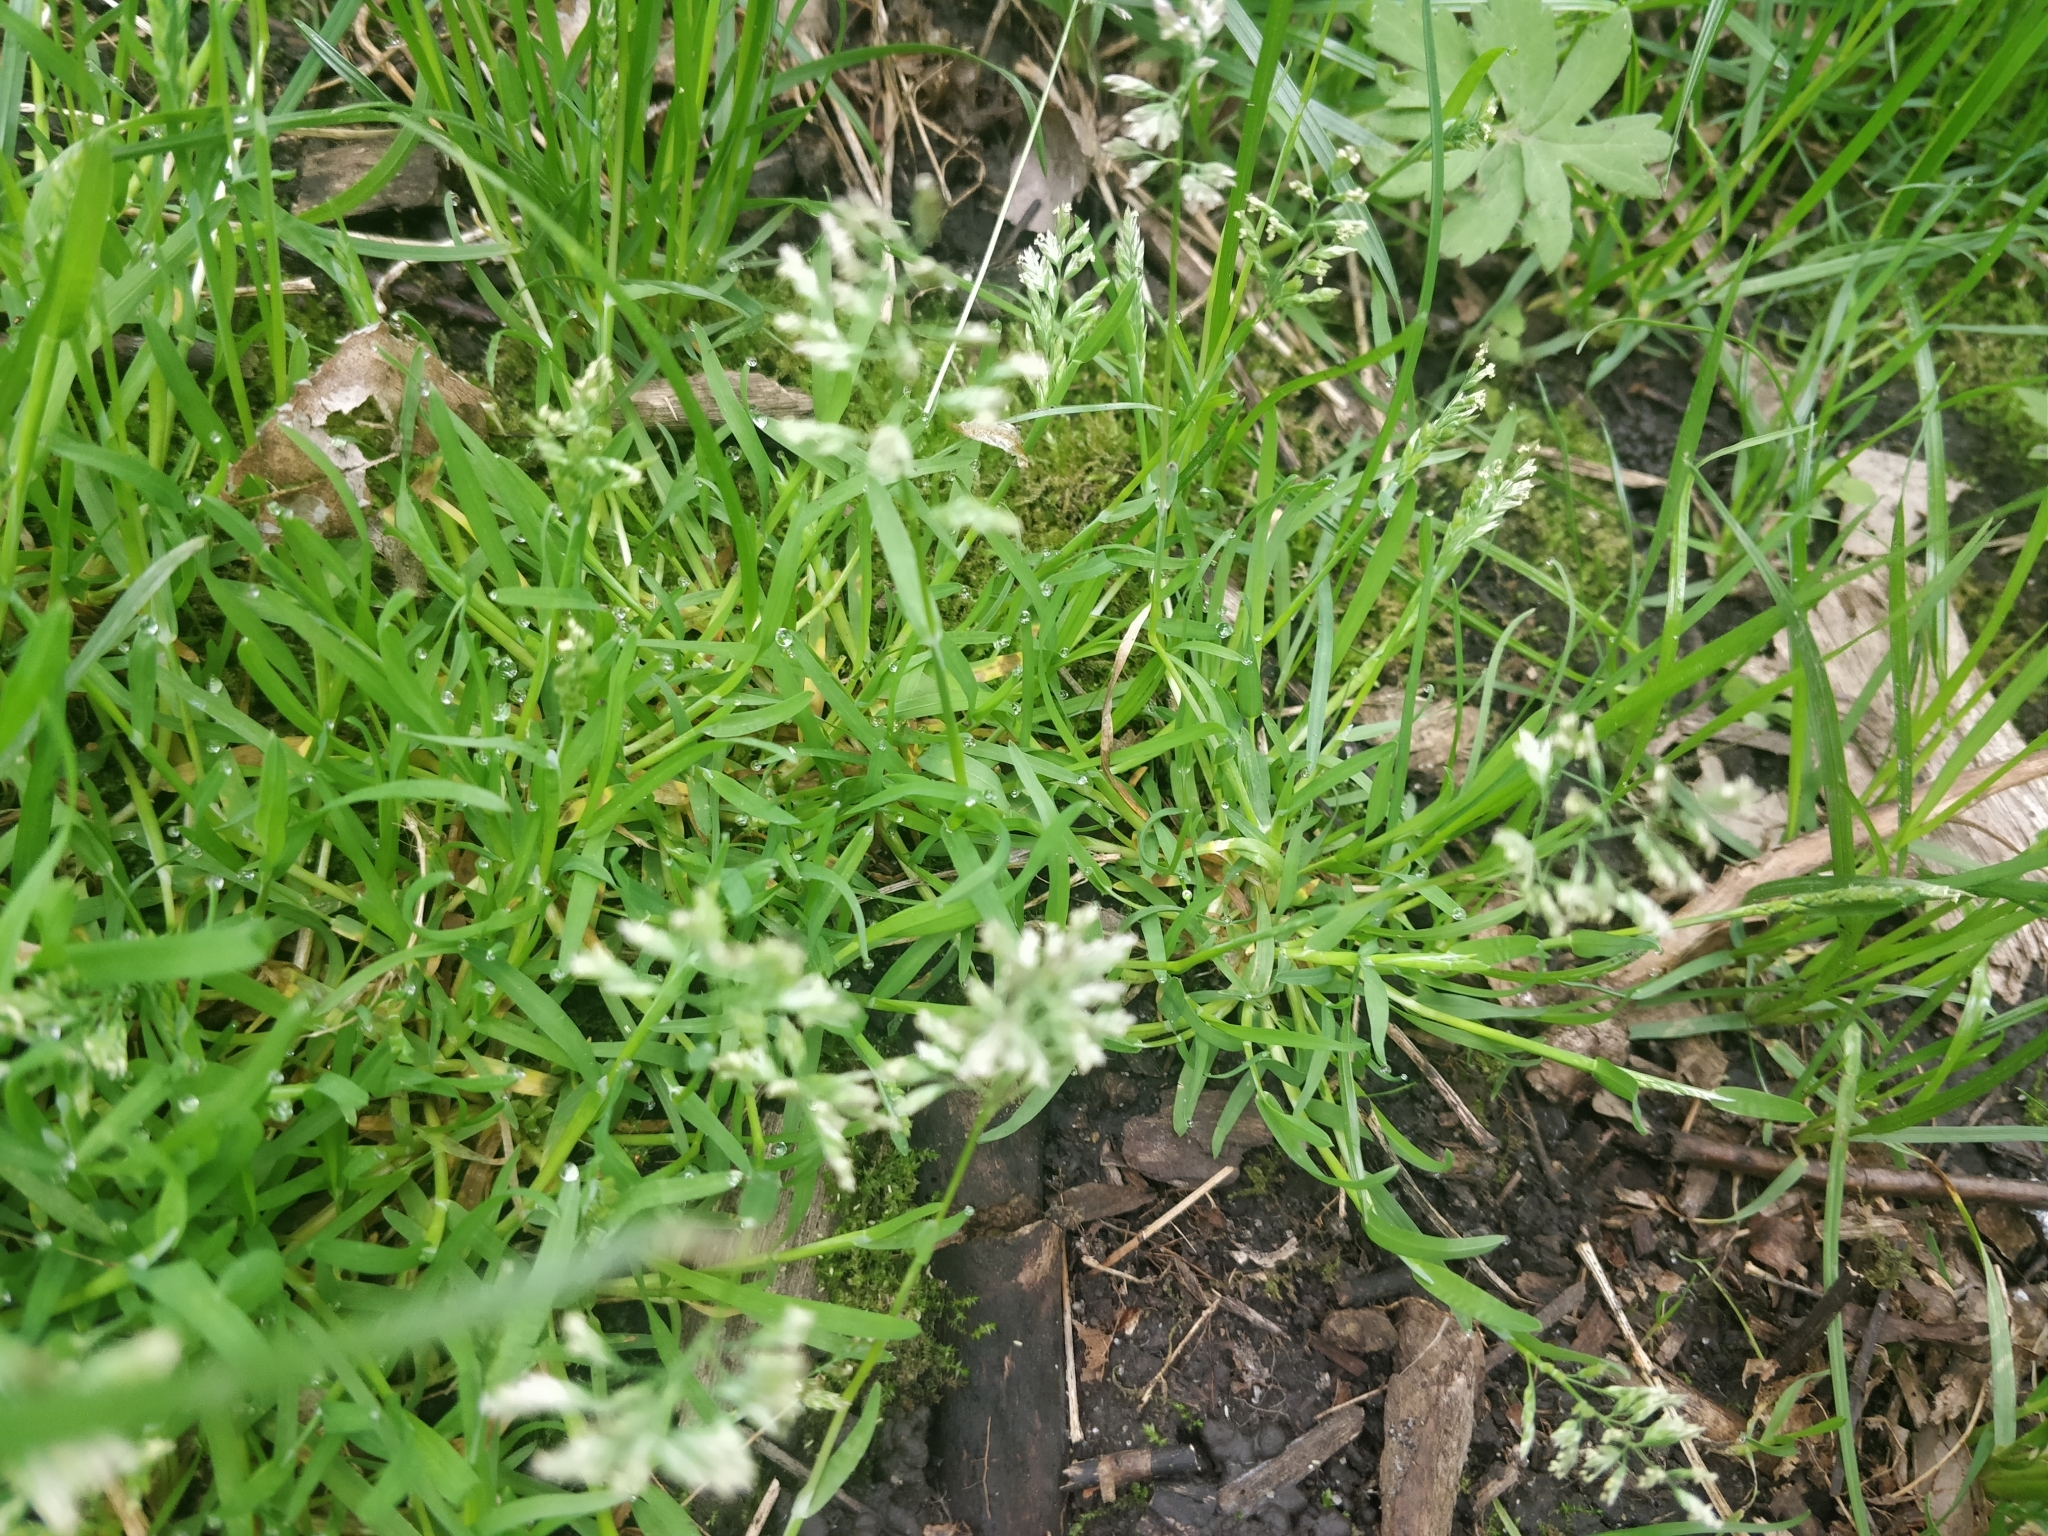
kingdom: Plantae
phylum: Tracheophyta
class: Liliopsida
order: Poales
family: Poaceae
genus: Poa
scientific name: Poa annua
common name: Annual bluegrass
